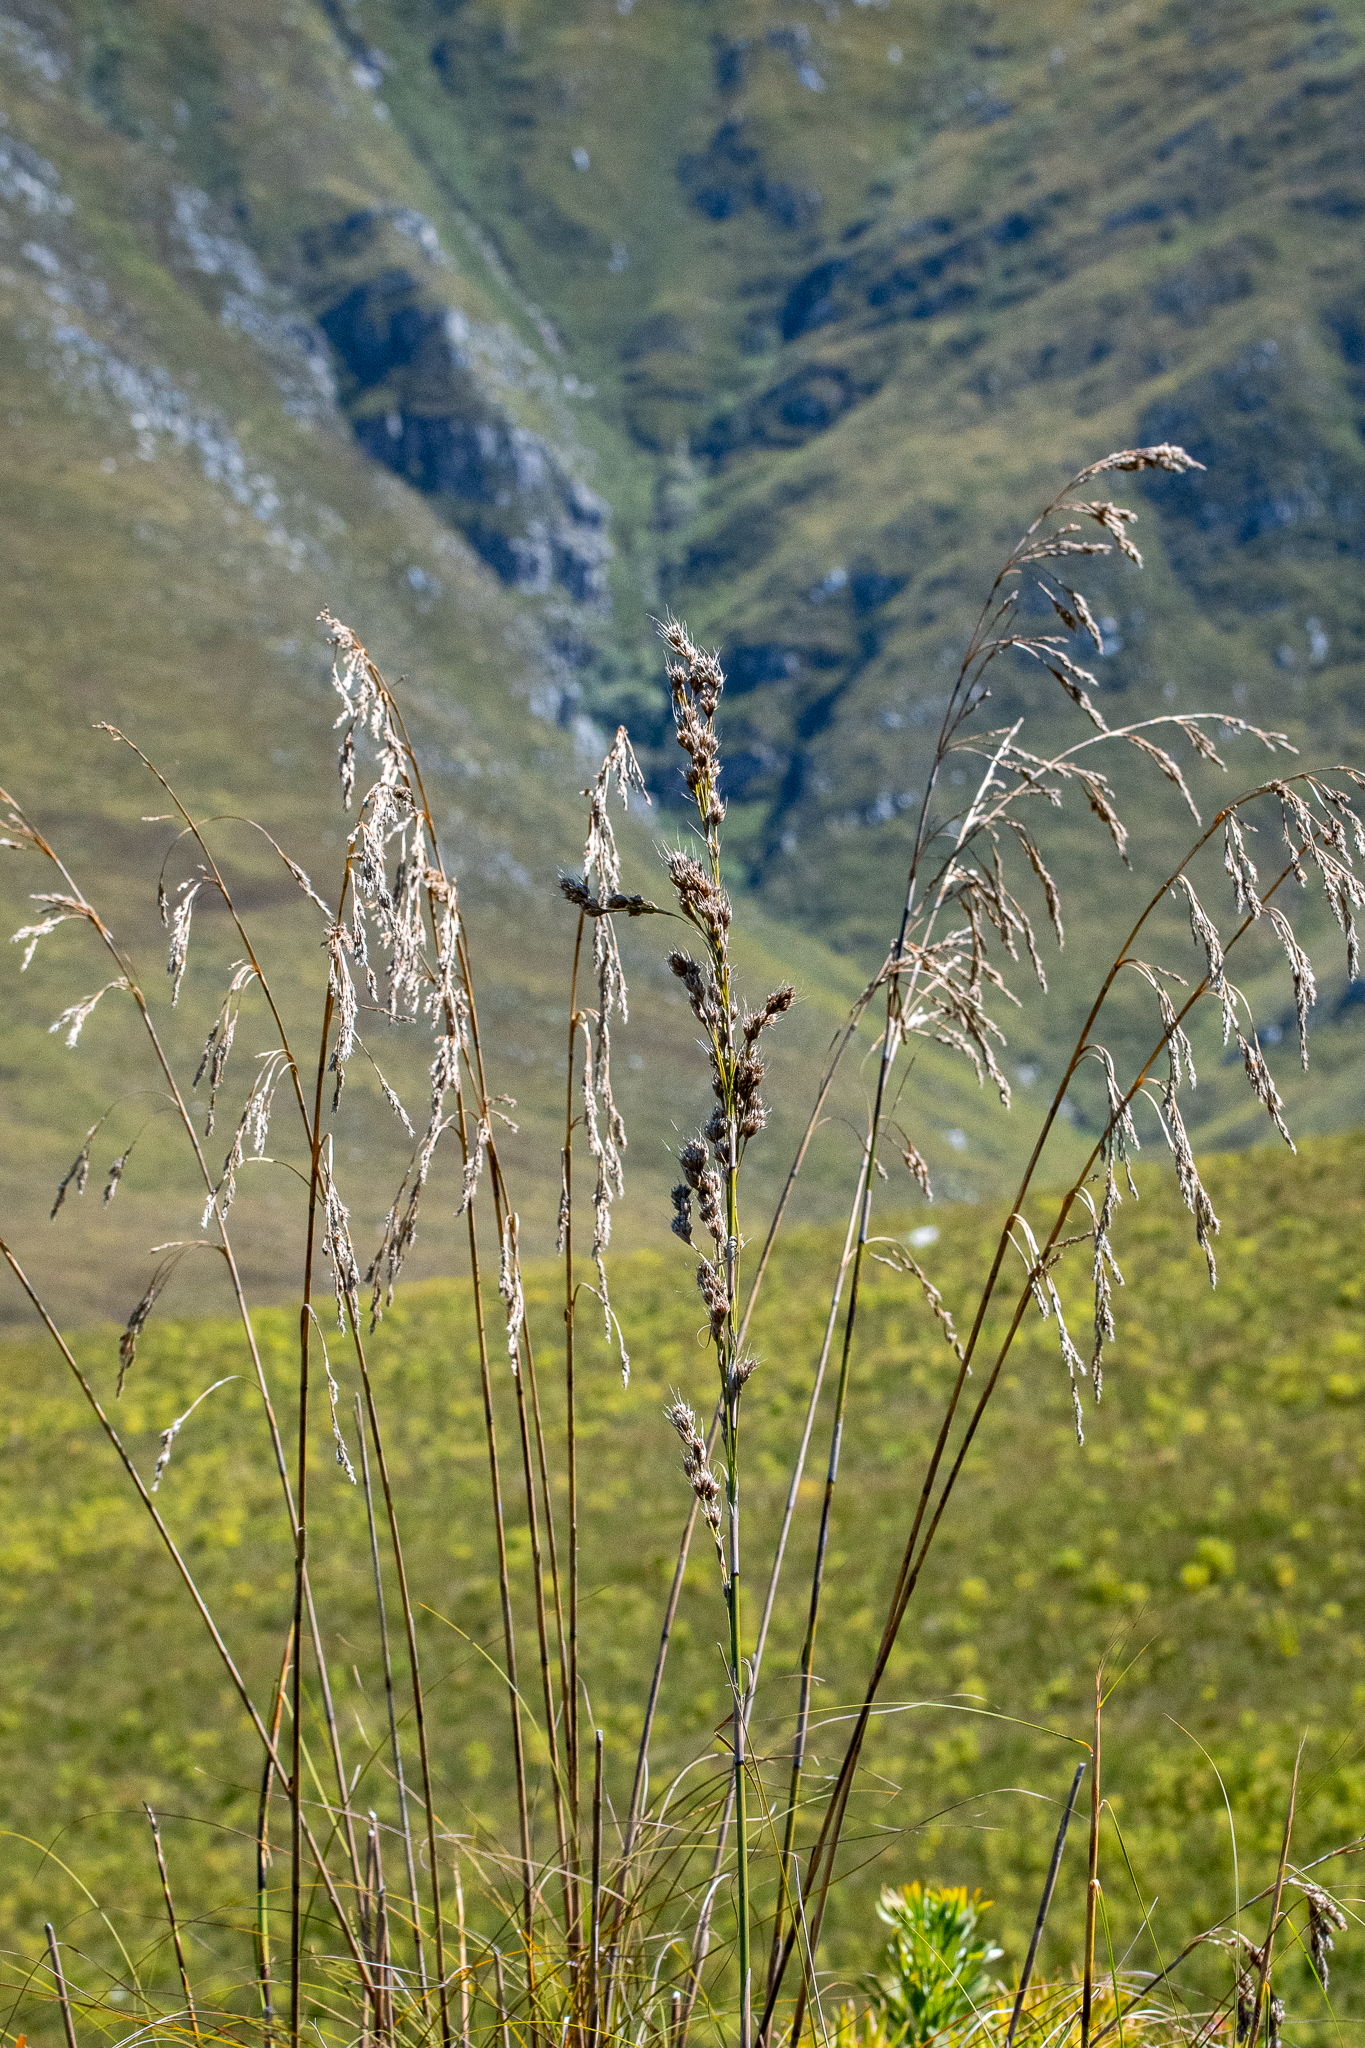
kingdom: Plantae
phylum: Tracheophyta
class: Liliopsida
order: Poales
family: Cyperaceae
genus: Tetraria
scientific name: Tetraria involucrata
